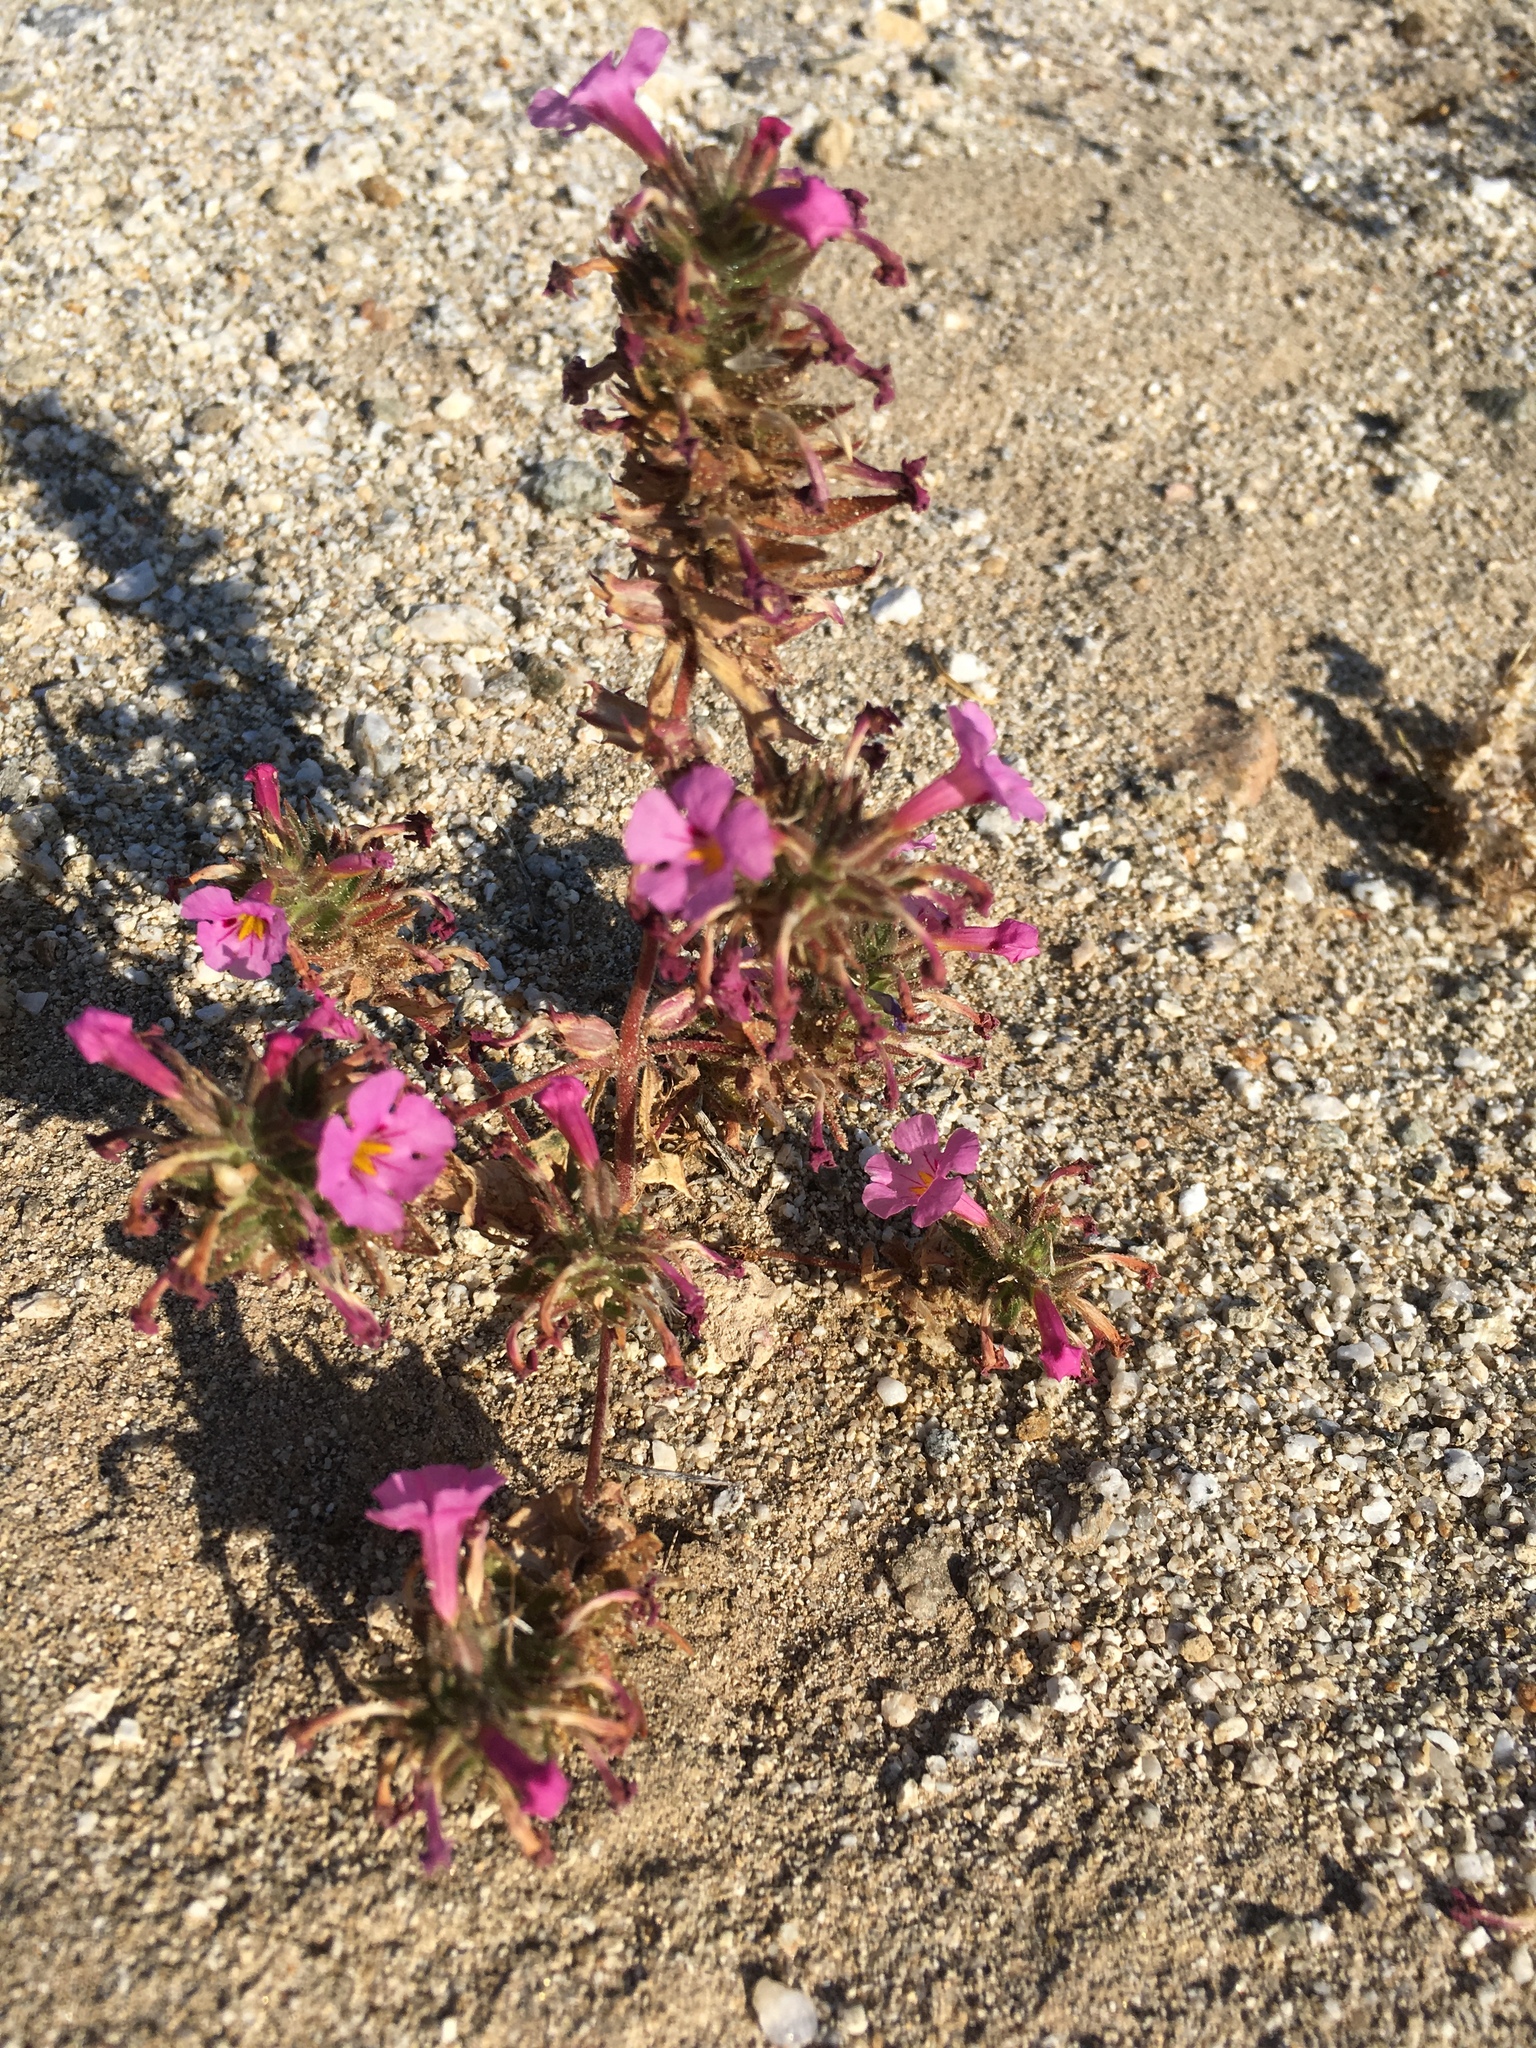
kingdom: Plantae
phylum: Tracheophyta
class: Magnoliopsida
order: Lamiales
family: Phrymaceae
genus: Diplacus
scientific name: Diplacus bigelovii
